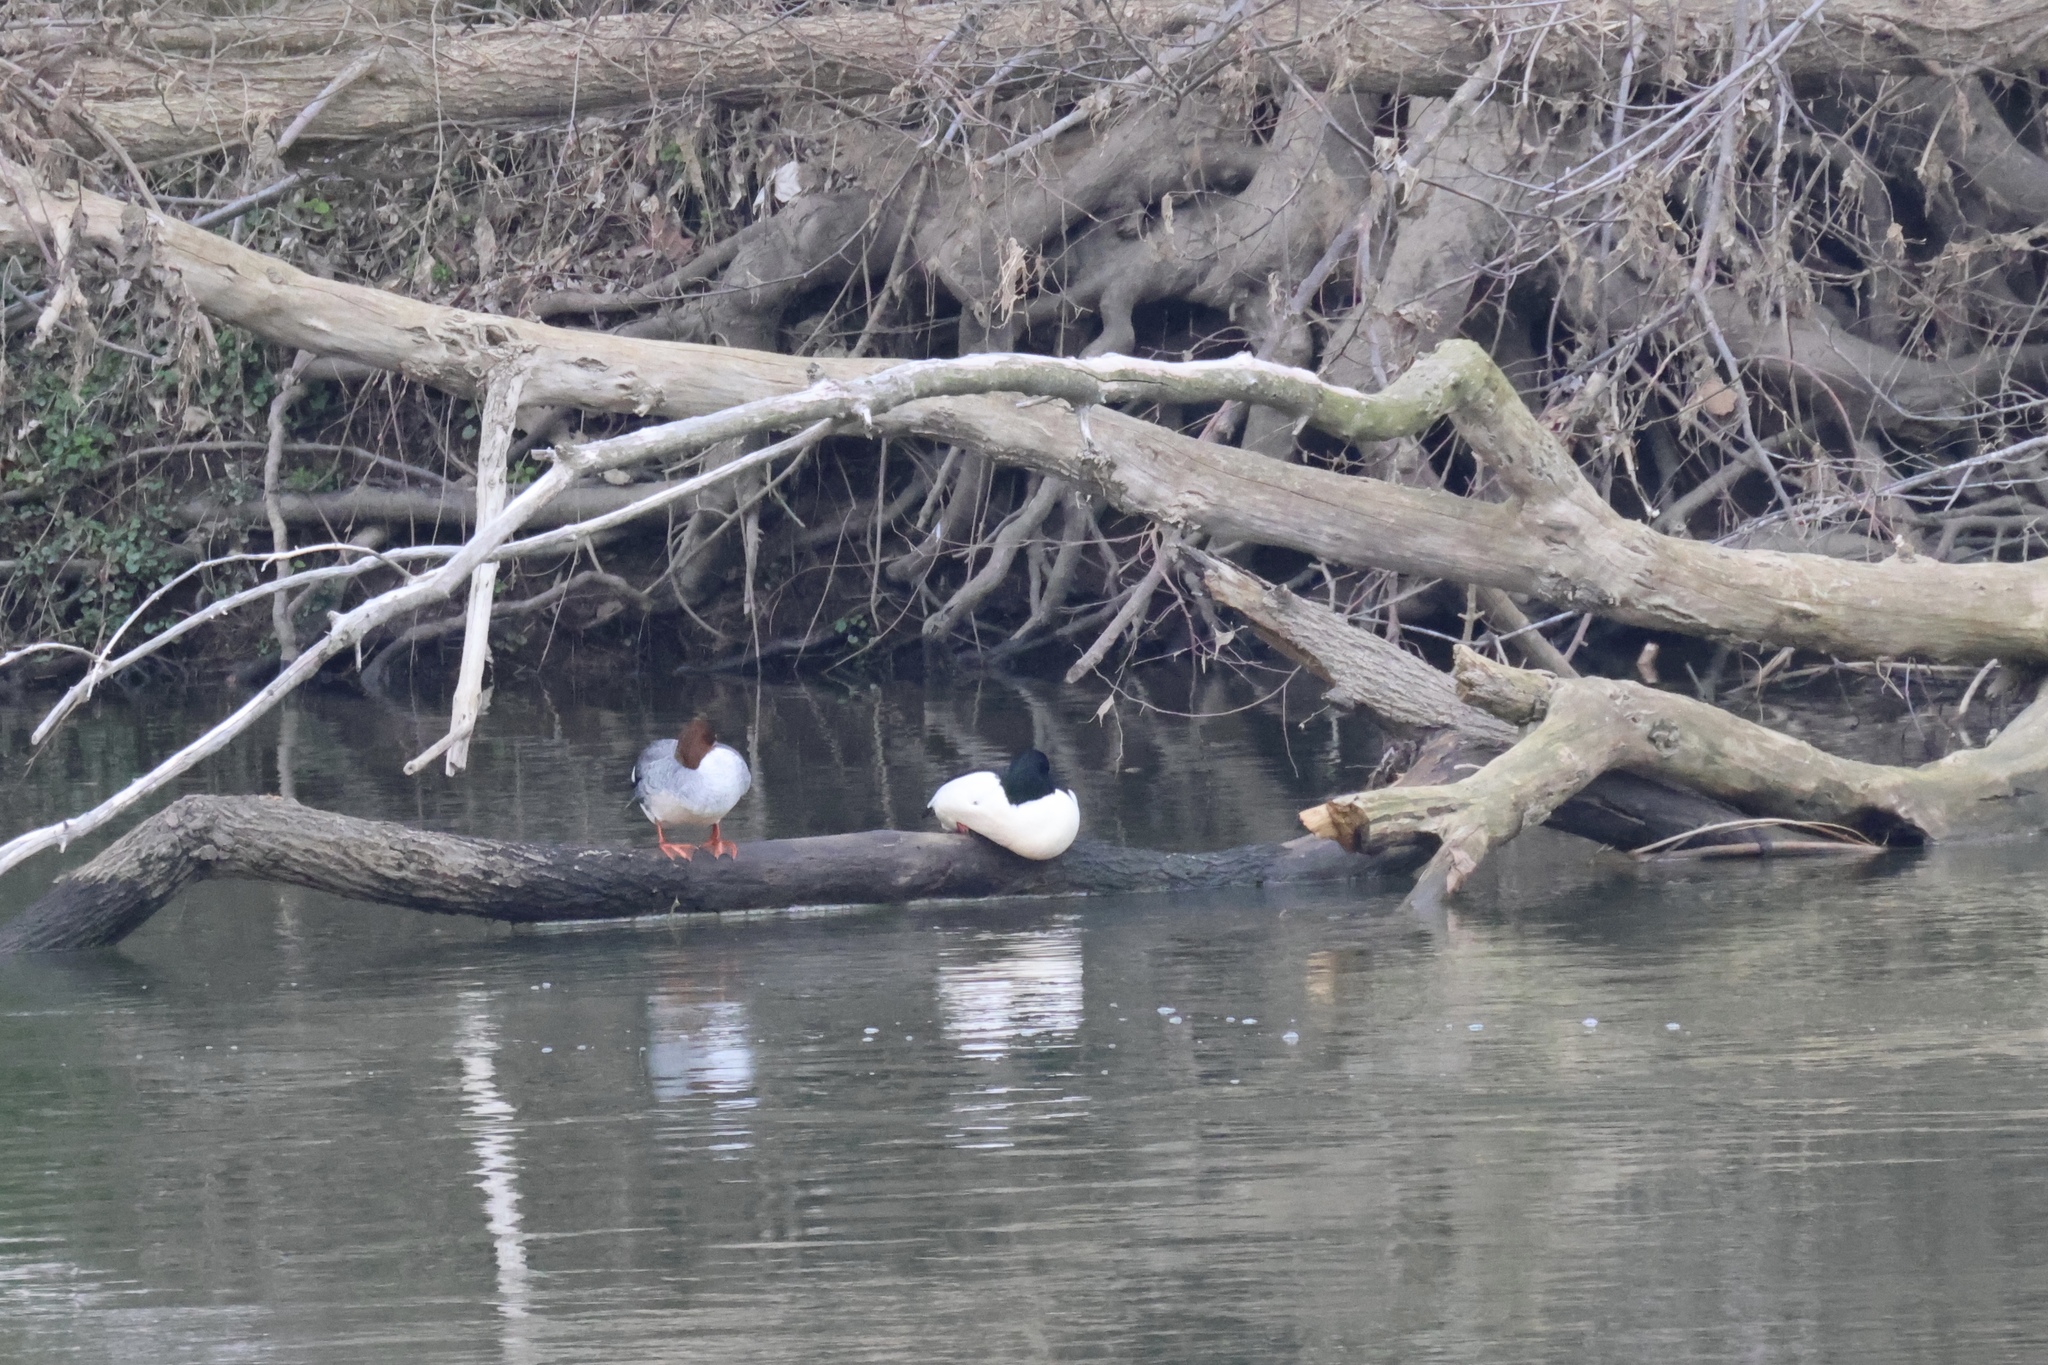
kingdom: Animalia
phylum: Chordata
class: Aves
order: Anseriformes
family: Anatidae
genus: Mergus
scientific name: Mergus merganser
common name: Common merganser
